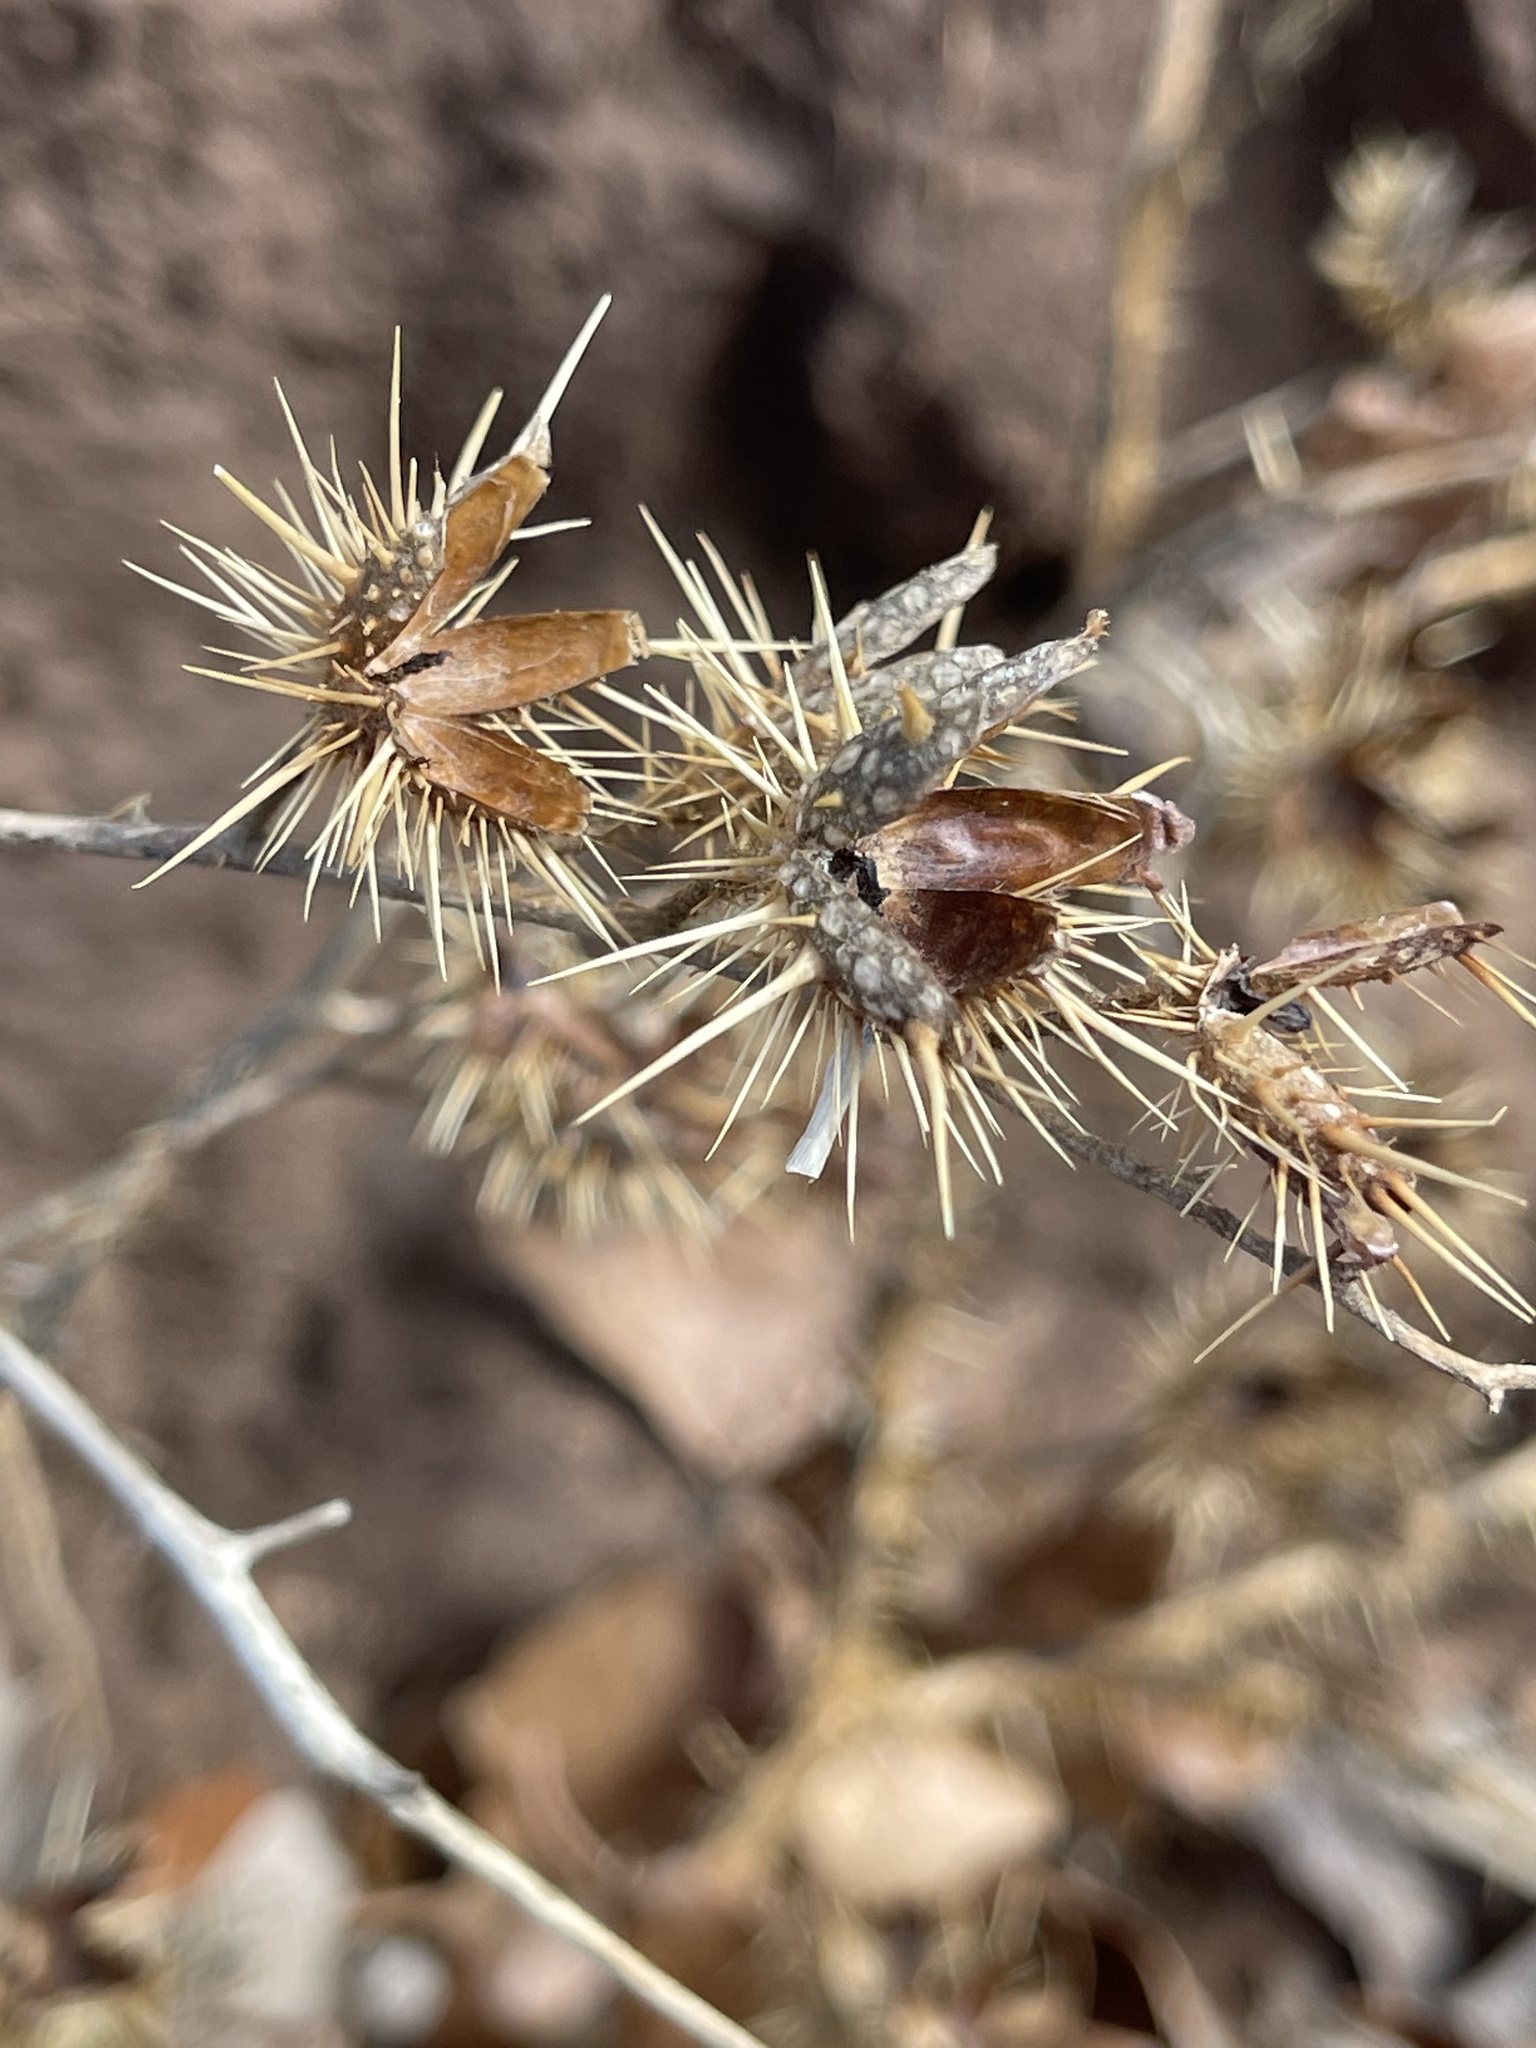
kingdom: Plantae
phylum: Tracheophyta
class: Magnoliopsida
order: Solanales
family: Solanaceae
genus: Solanum
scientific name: Solanum angustifolium
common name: Buffalobur nightshade
